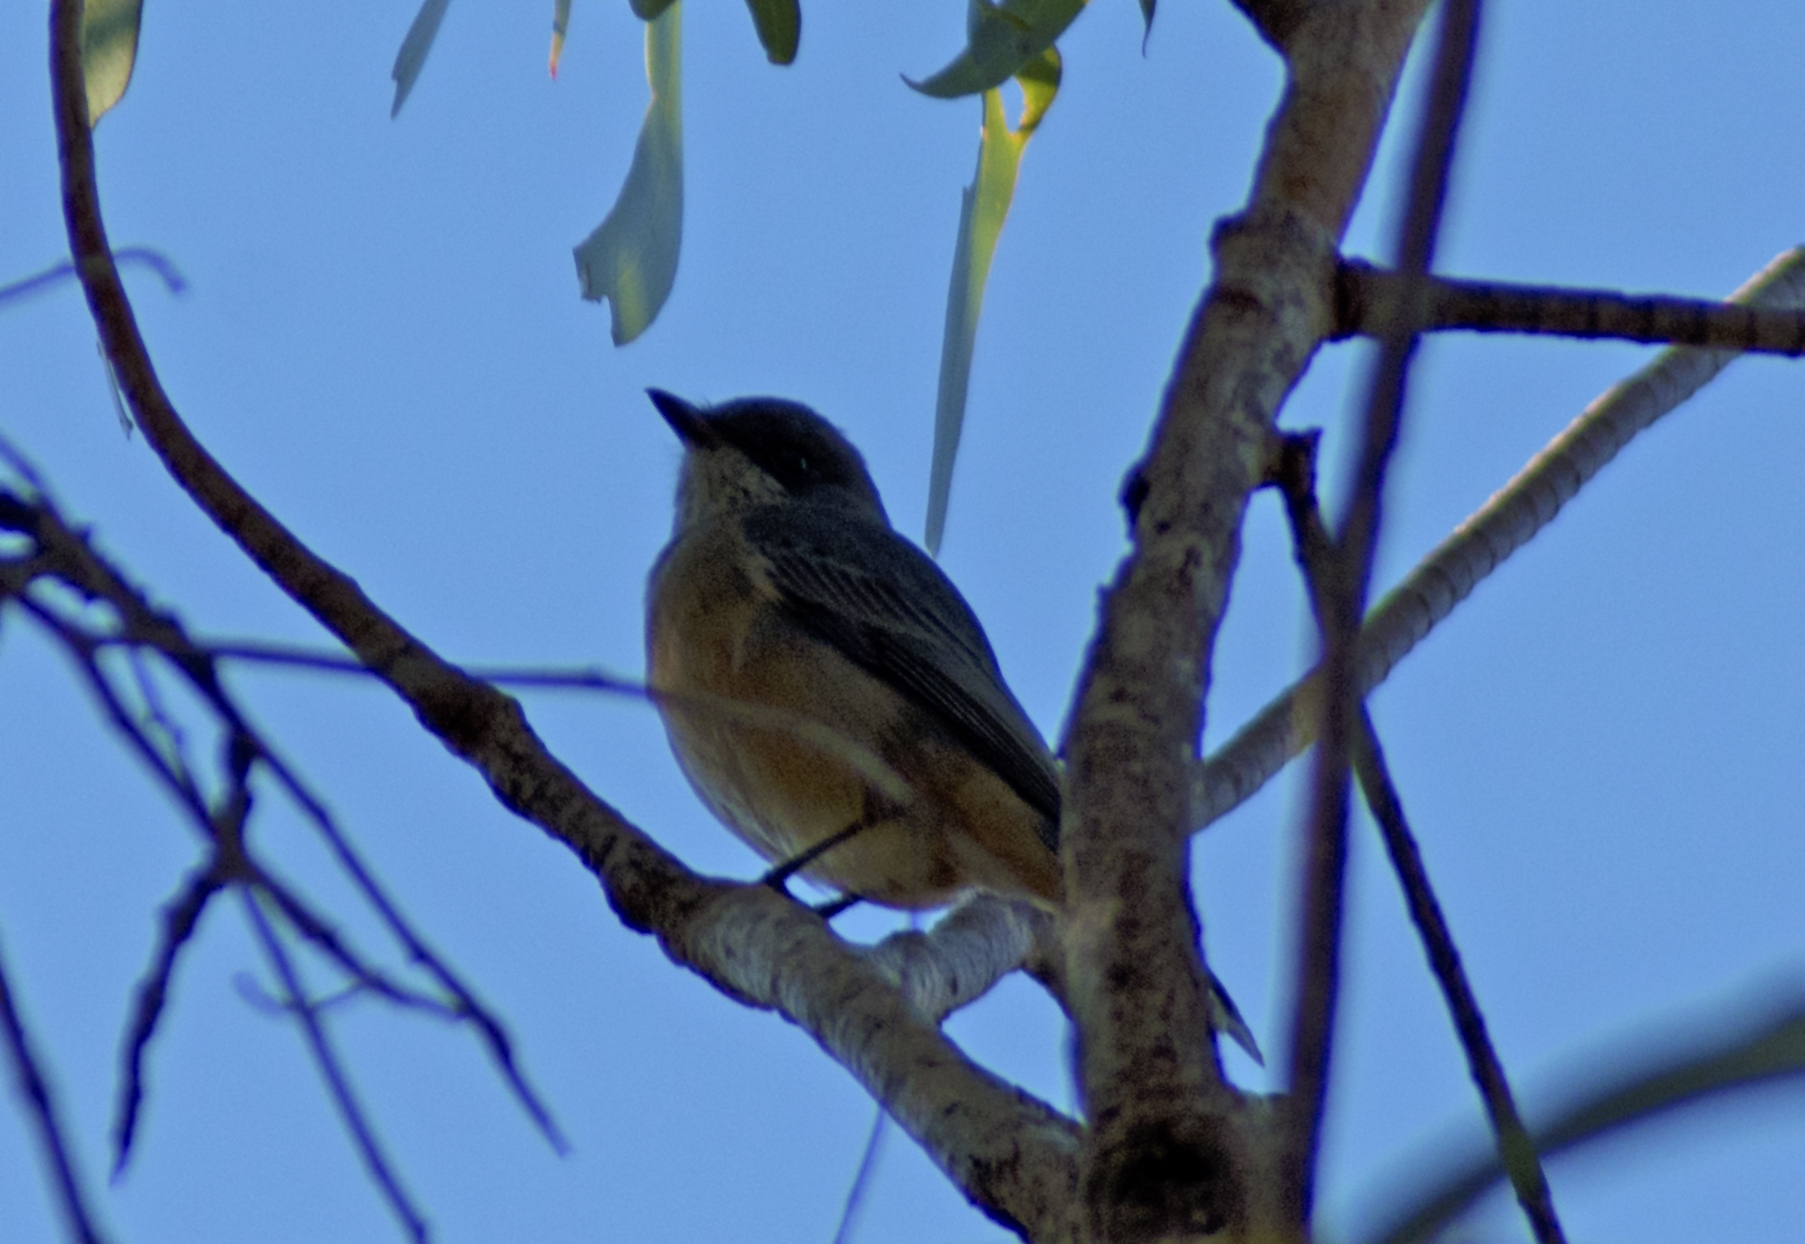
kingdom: Animalia
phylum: Chordata
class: Aves
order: Passeriformes
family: Pachycephalidae
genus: Pachycephala
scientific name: Pachycephala rufiventris
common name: Rufous whistler
